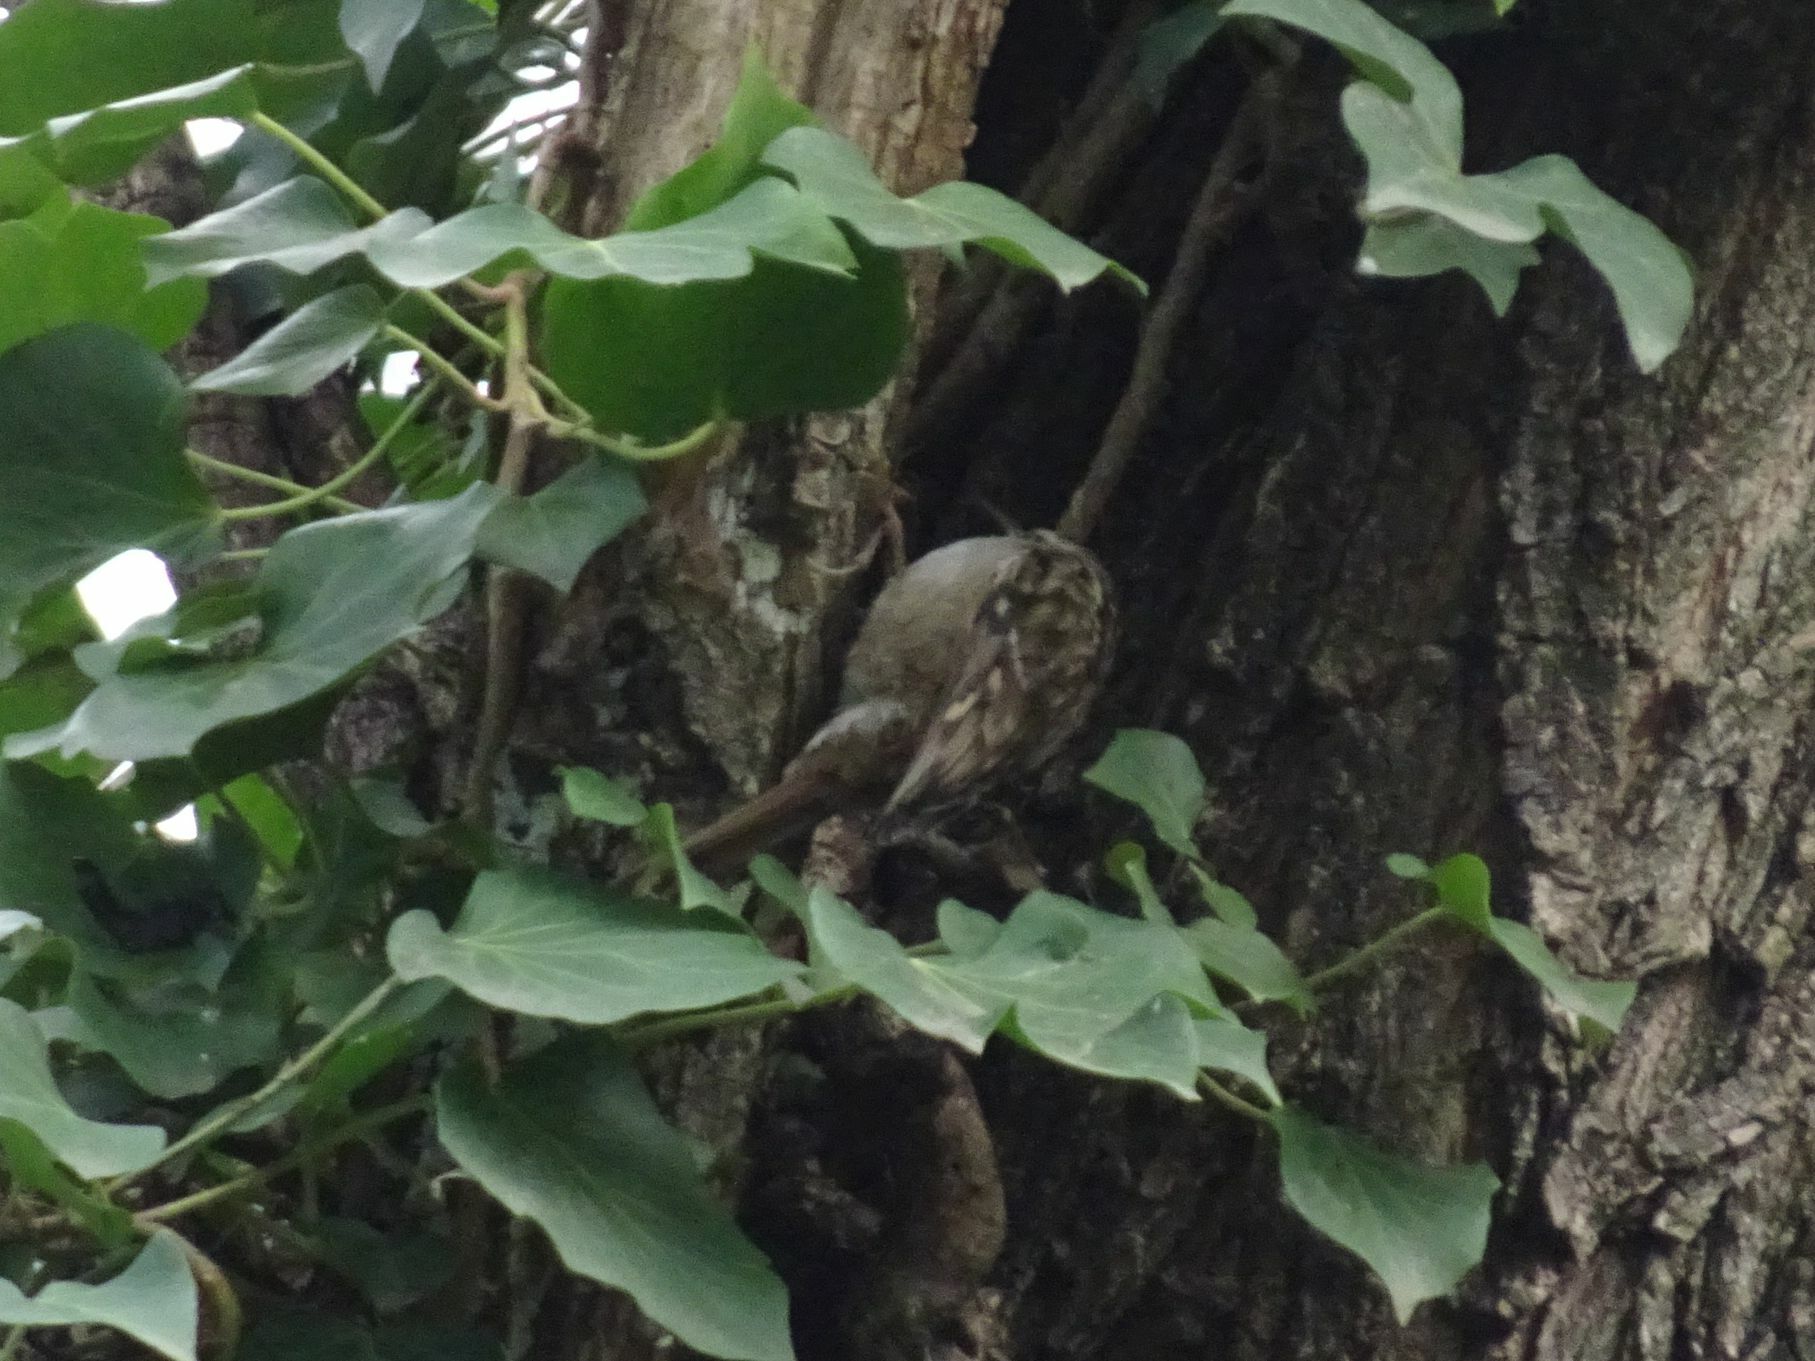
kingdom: Animalia
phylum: Chordata
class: Aves
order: Passeriformes
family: Certhiidae
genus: Certhia
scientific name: Certhia brachydactyla
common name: Short-toed treecreeper
